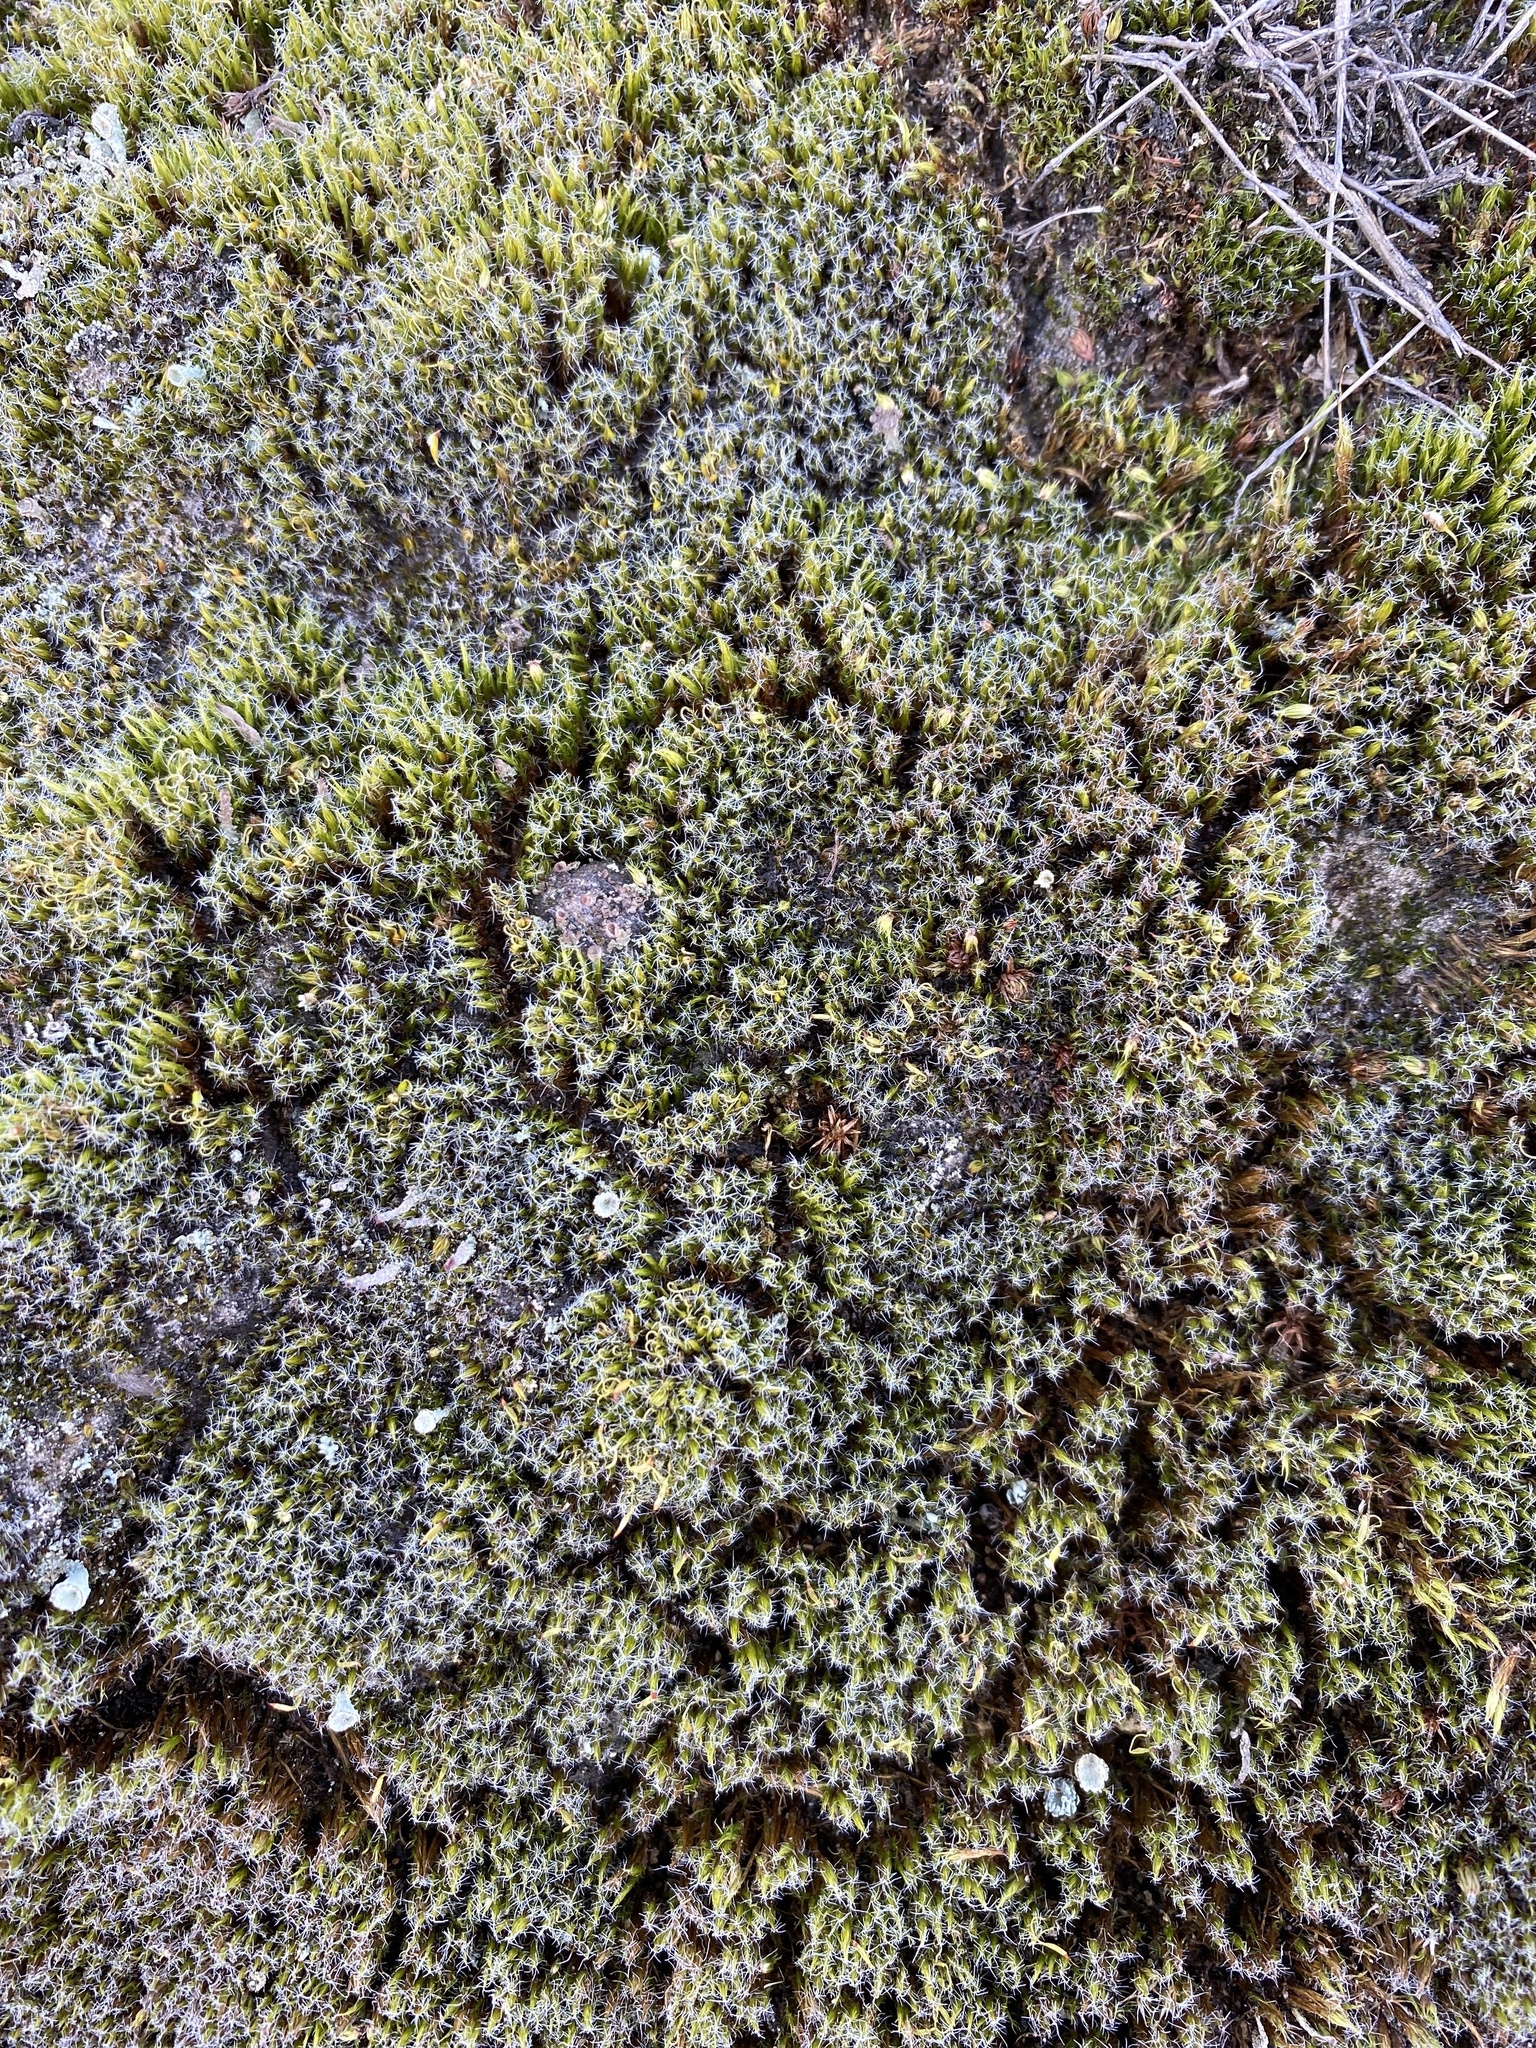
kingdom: Plantae
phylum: Bryophyta
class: Bryopsida
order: Dicranales
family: Leucobryaceae
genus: Campylopus
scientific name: Campylopus introflexus
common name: Heath star moss
